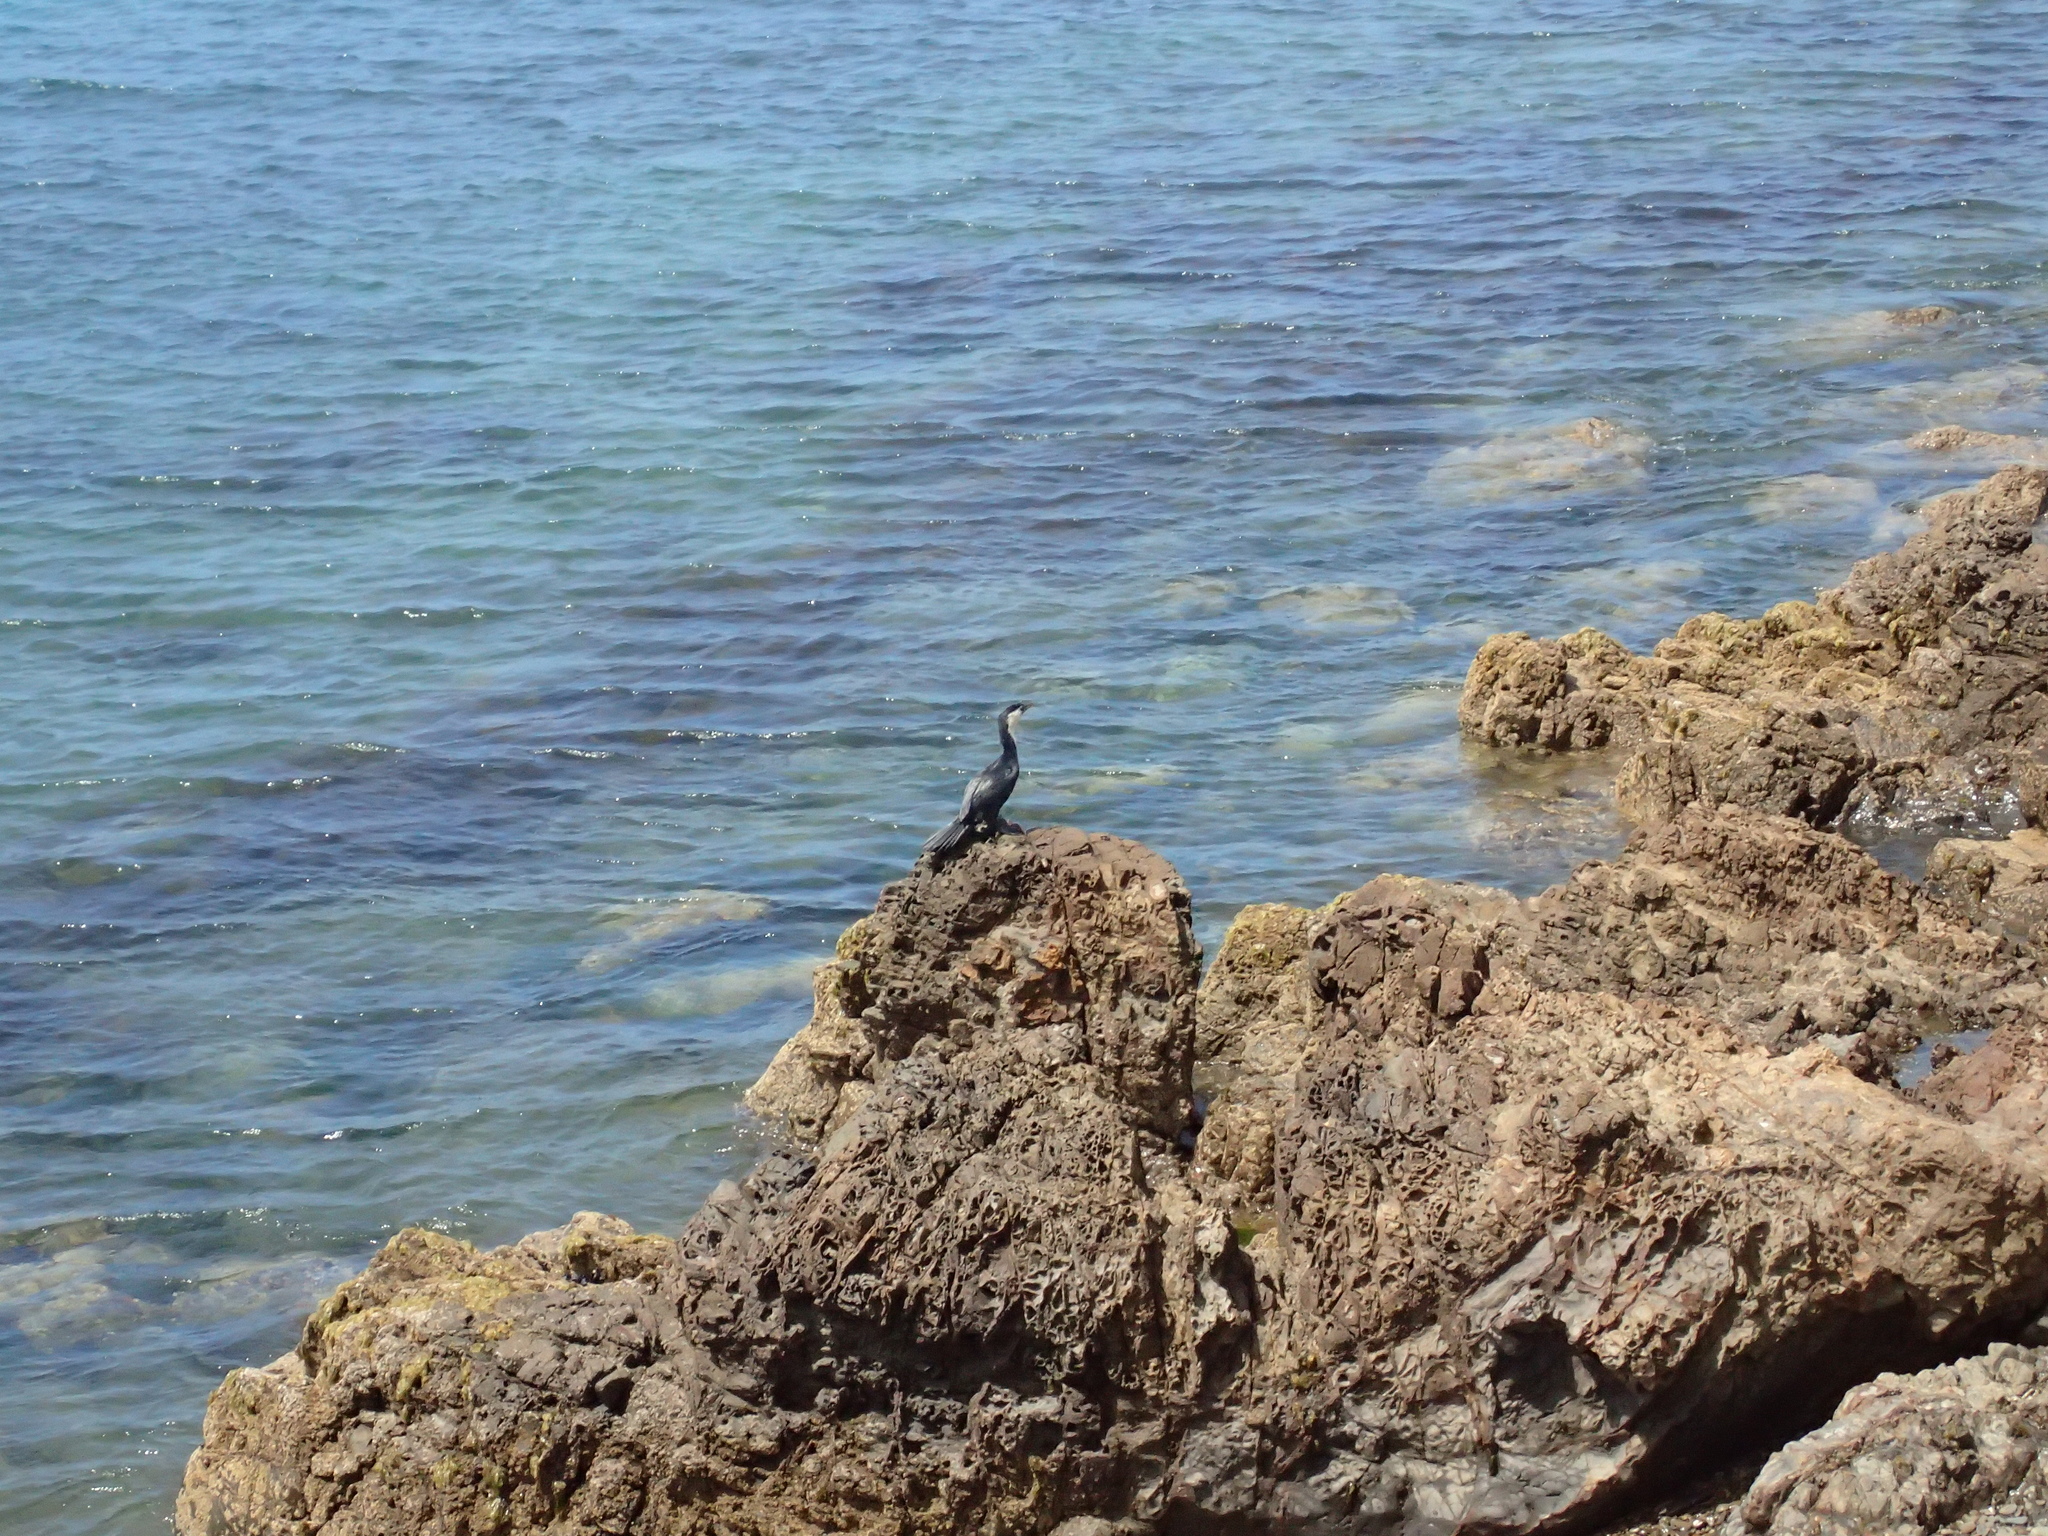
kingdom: Animalia
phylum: Chordata
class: Aves
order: Suliformes
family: Phalacrocoracidae
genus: Microcarbo
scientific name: Microcarbo melanoleucos
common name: Little pied cormorant
